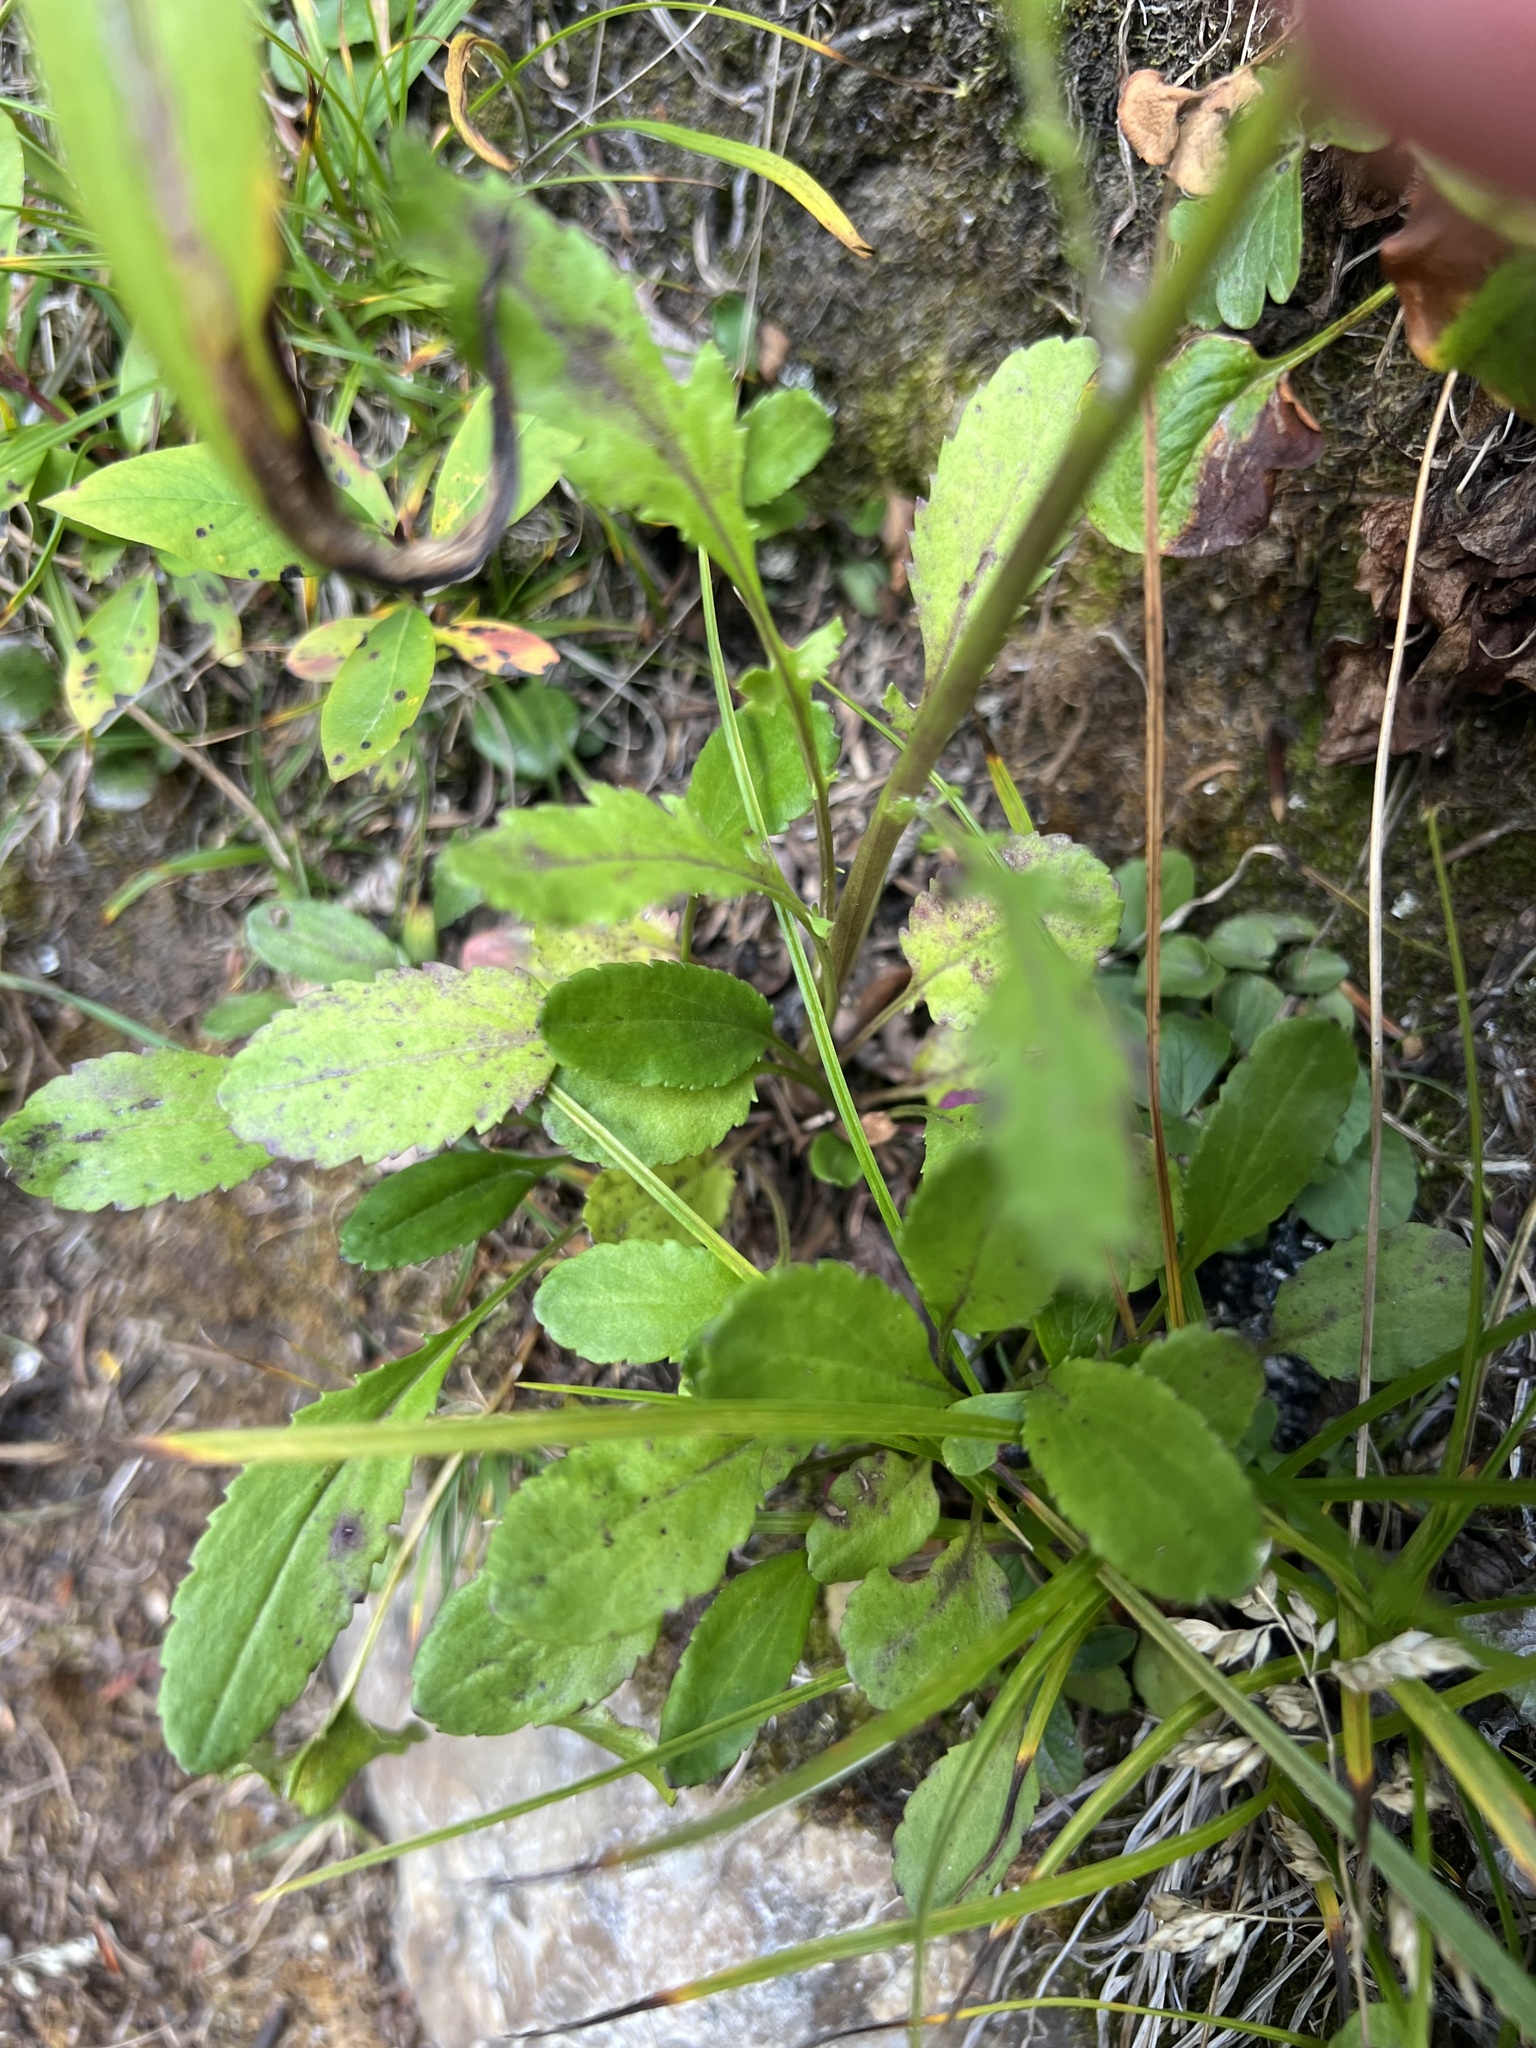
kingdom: Plantae
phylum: Tracheophyta
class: Magnoliopsida
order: Asterales
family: Asteraceae
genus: Packera
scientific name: Packera paupercula
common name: Balsam groundsel
